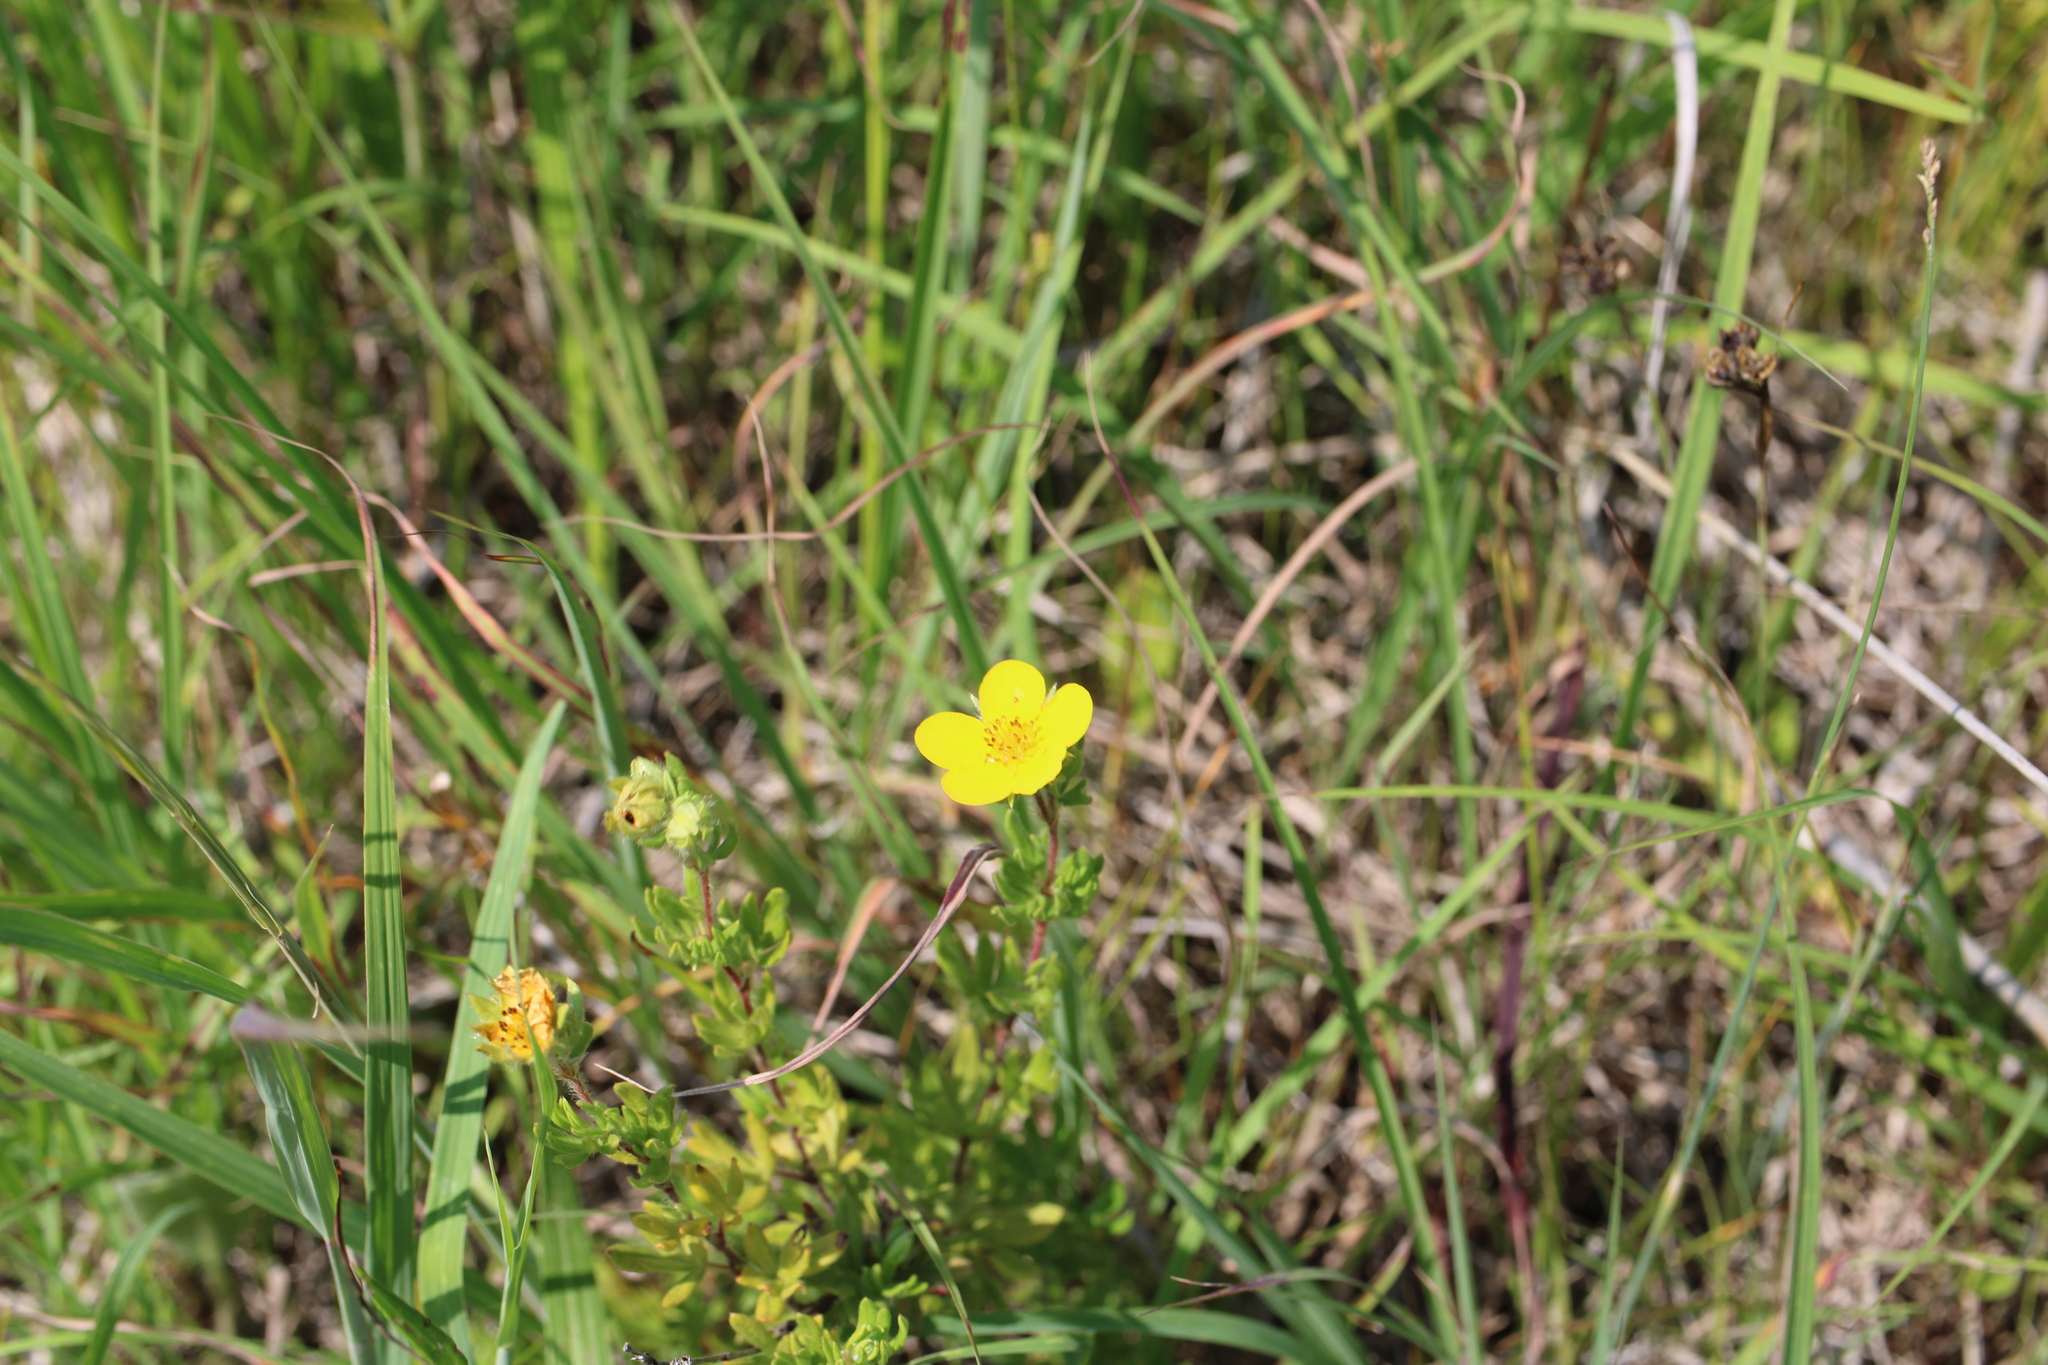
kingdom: Plantae
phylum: Tracheophyta
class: Magnoliopsida
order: Rosales
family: Rosaceae
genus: Dasiphora
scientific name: Dasiphora fruticosa
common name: Shrubby cinquefoil
